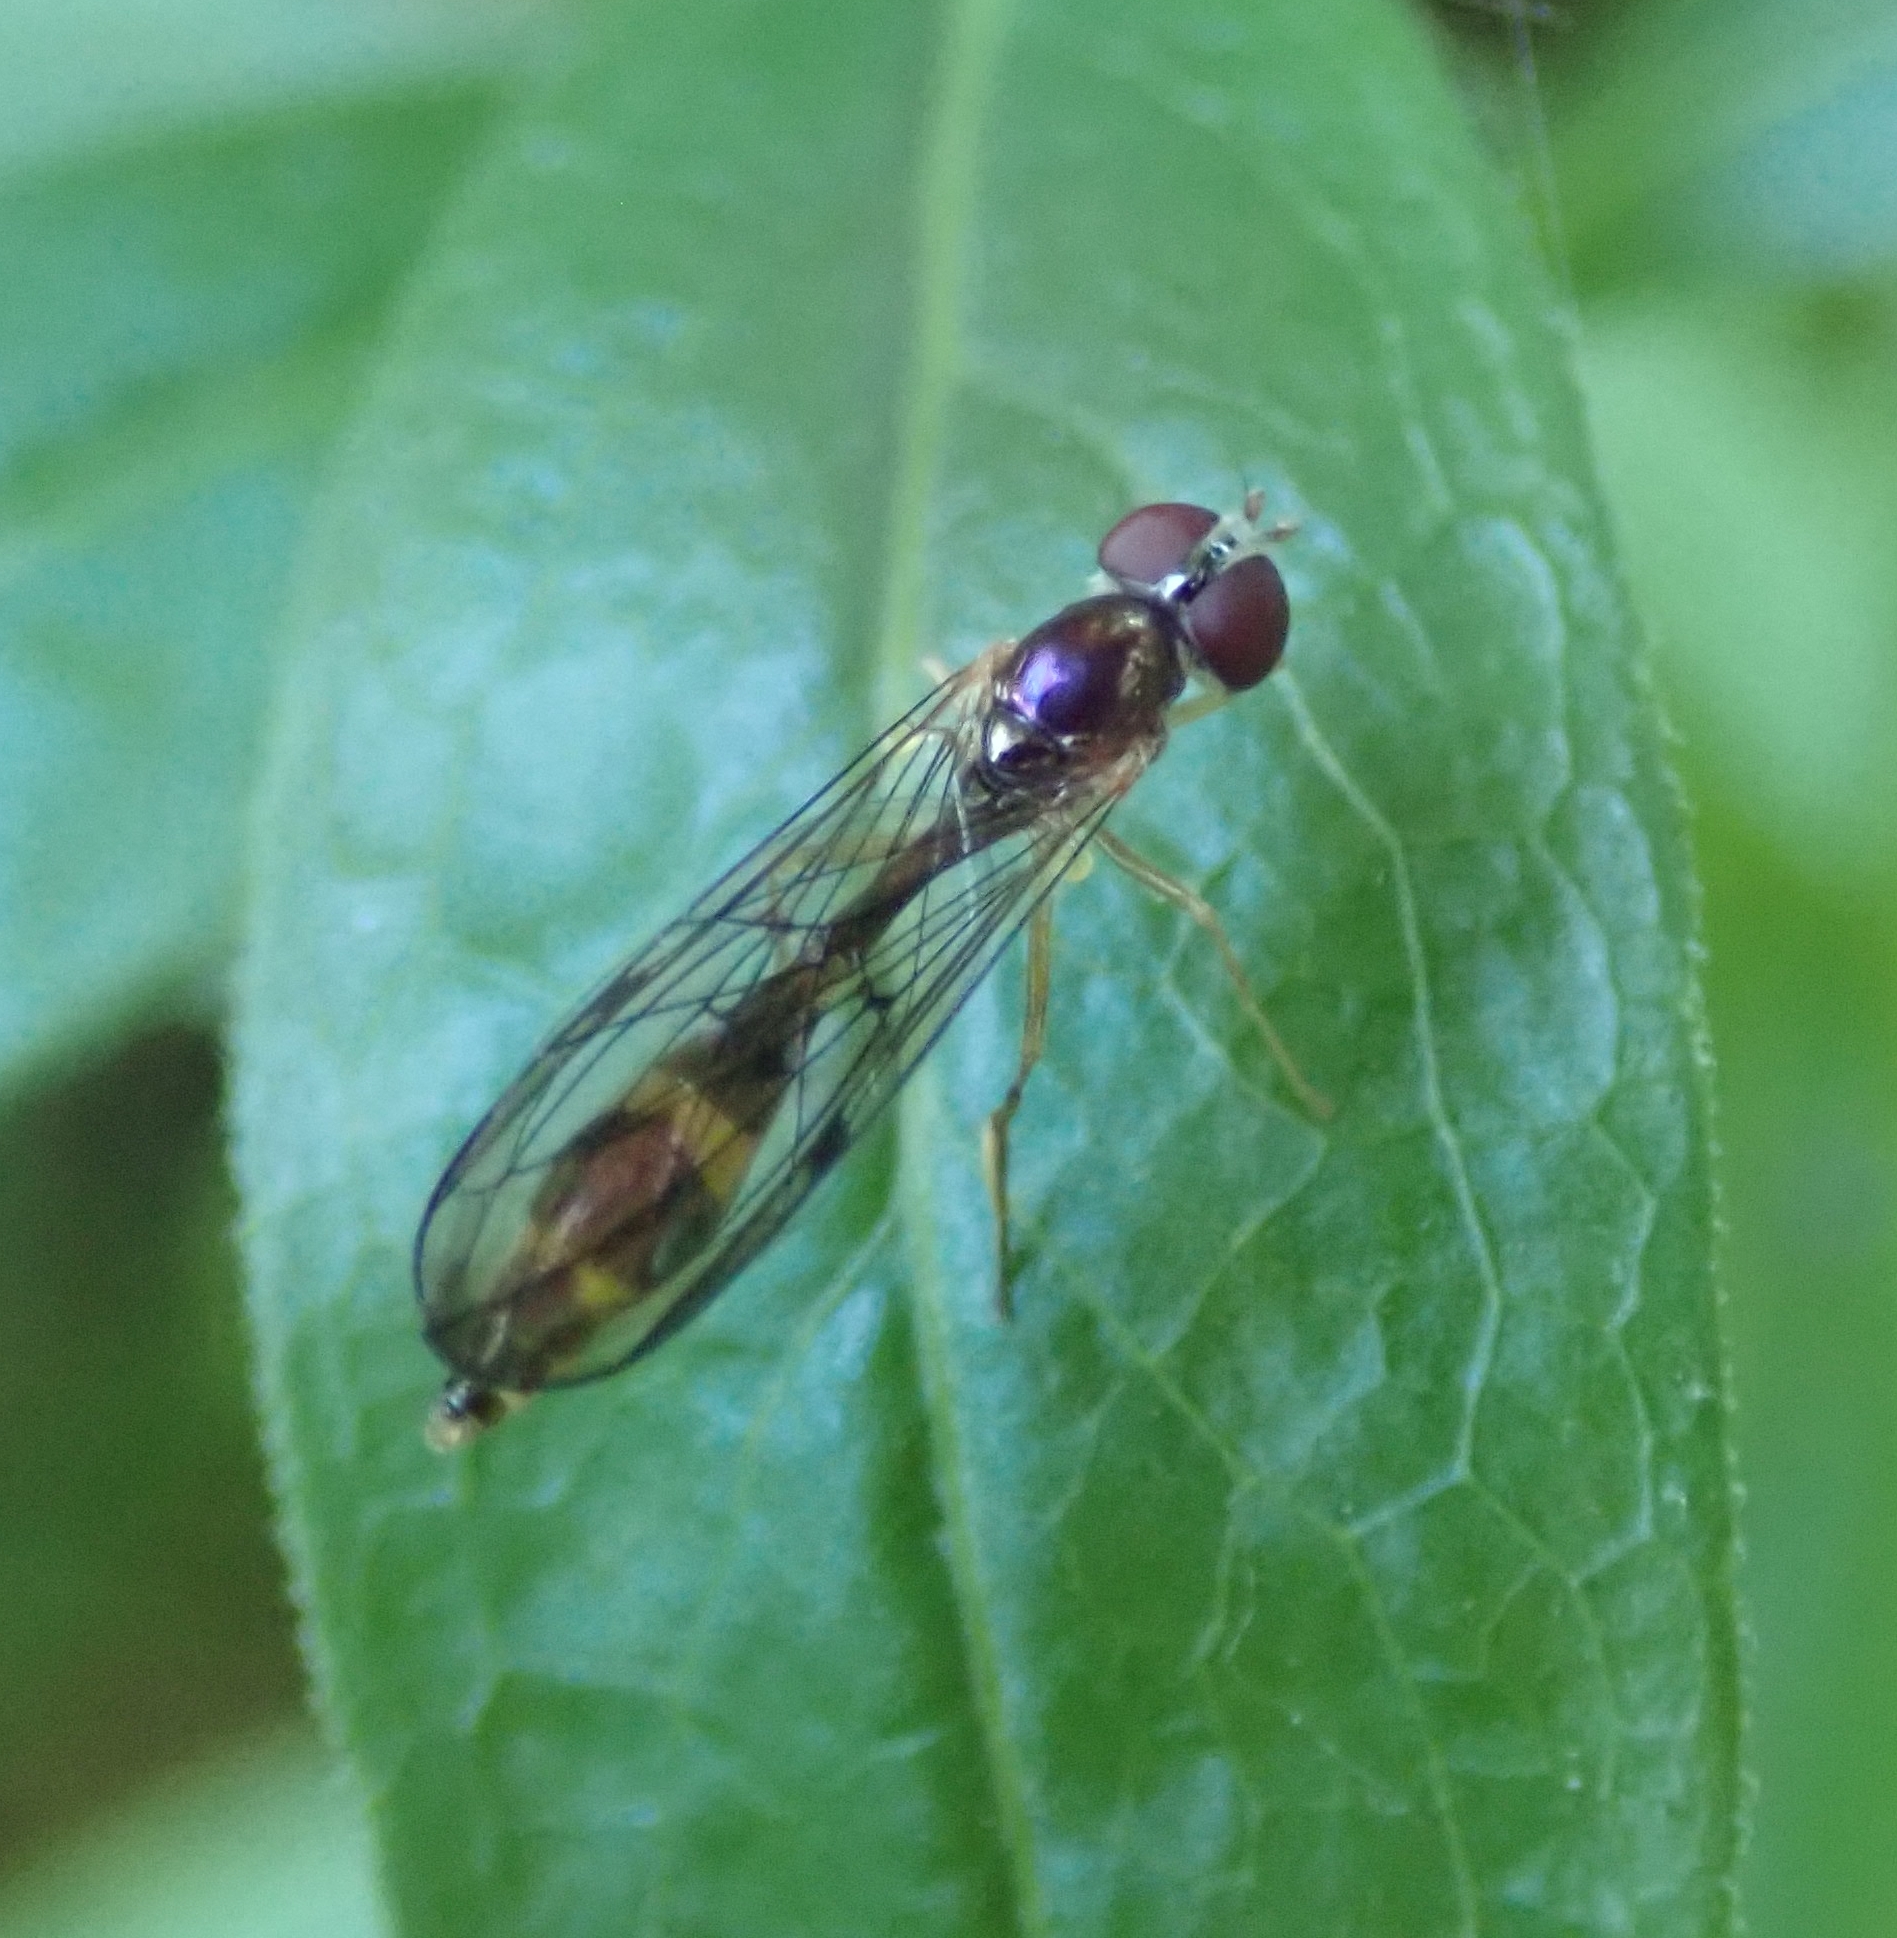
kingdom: Animalia
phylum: Arthropoda
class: Insecta
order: Diptera
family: Syrphidae
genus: Baccha
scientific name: Baccha elongata
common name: Common dainty
